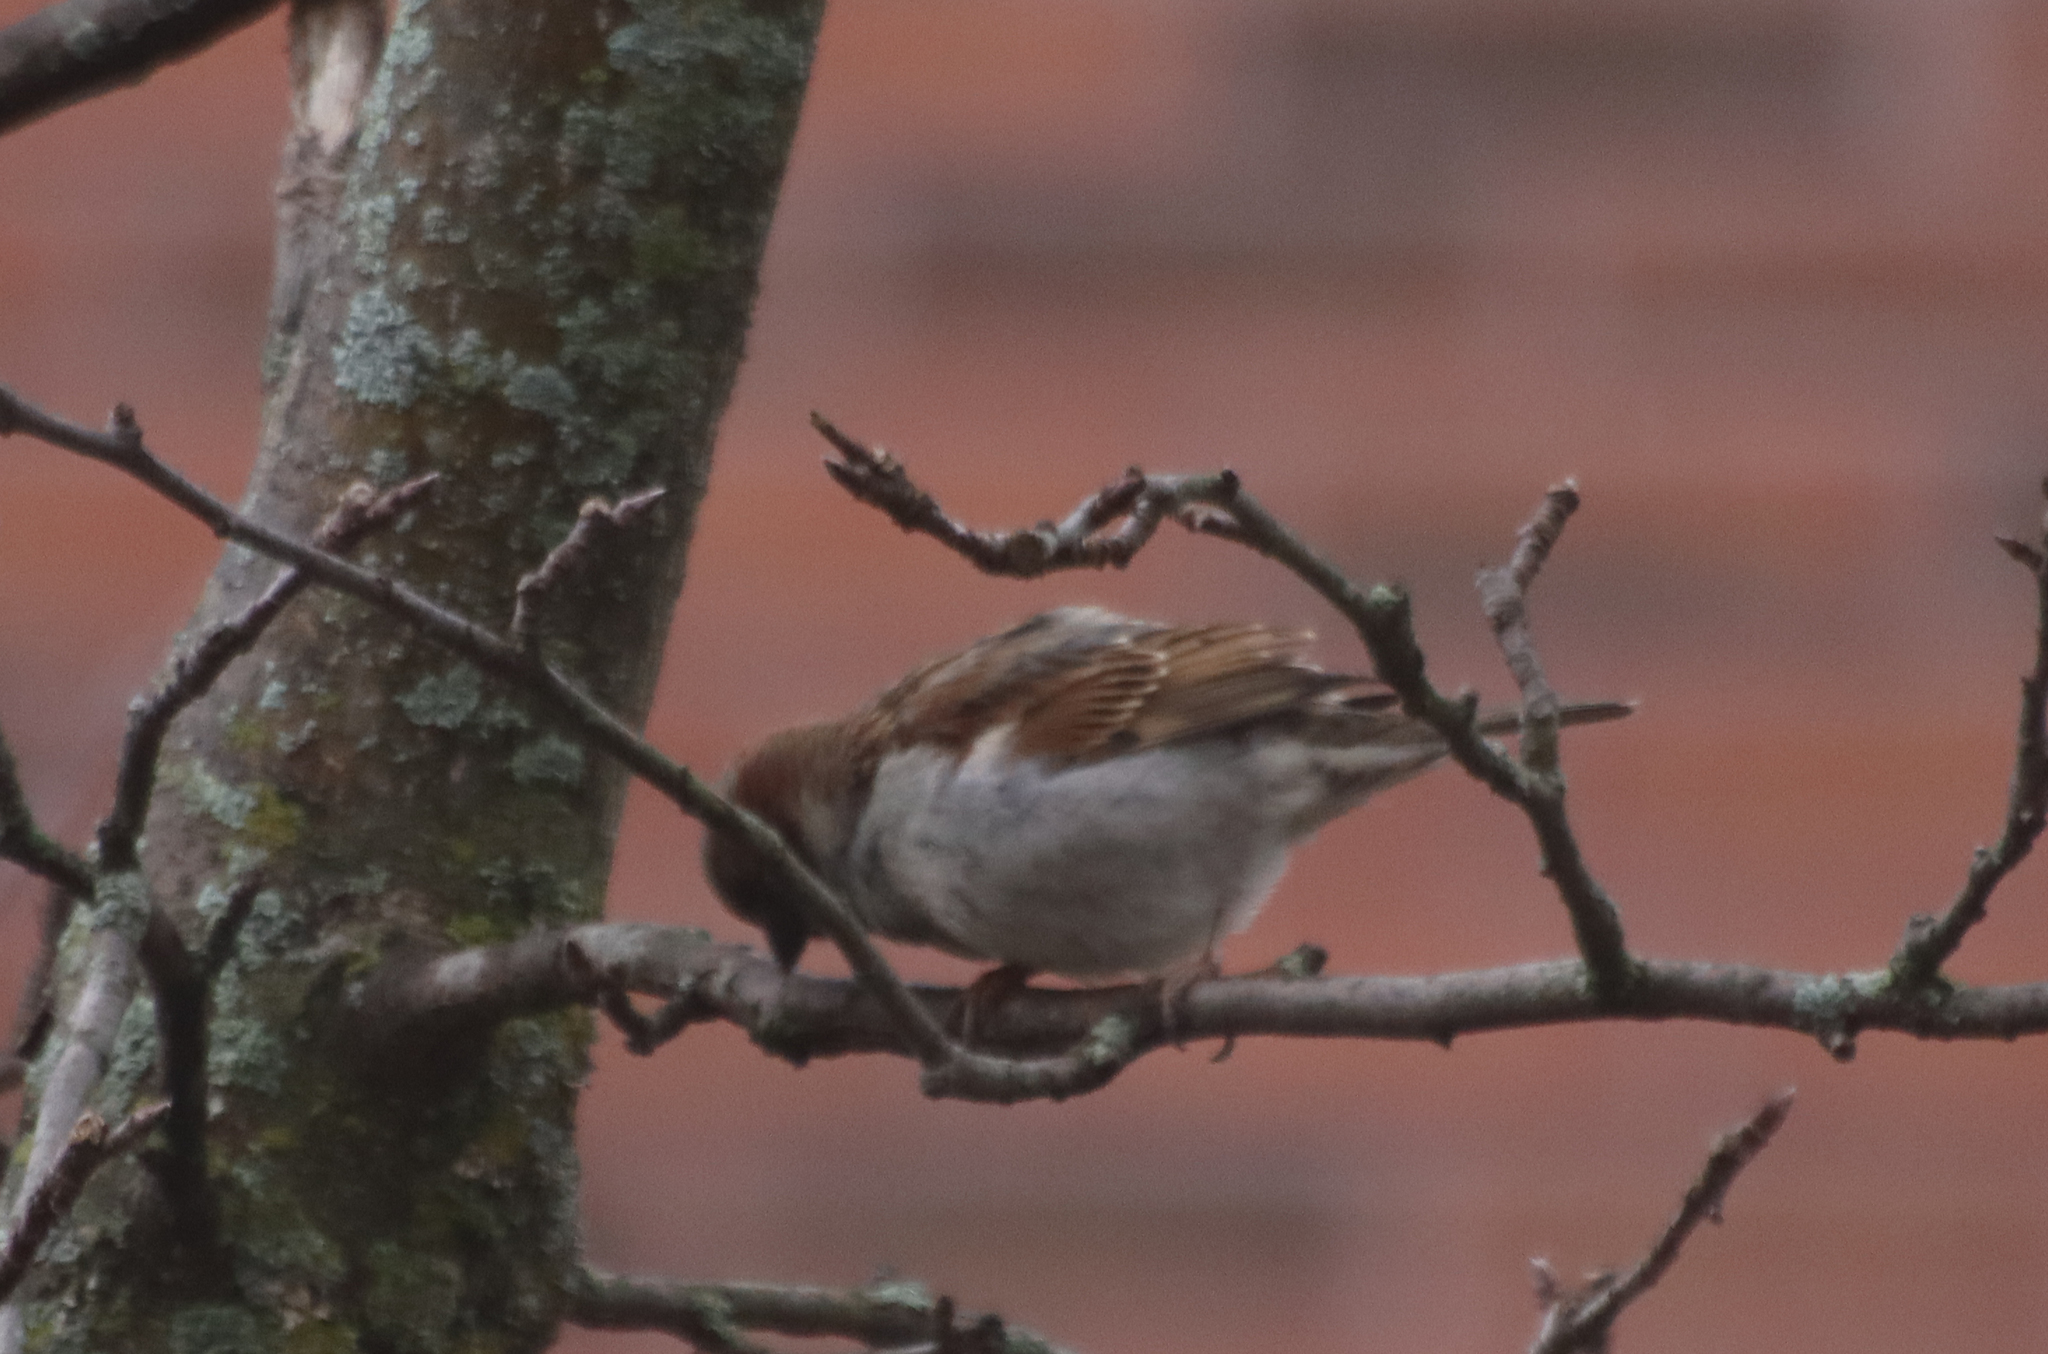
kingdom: Animalia
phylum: Chordata
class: Aves
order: Passeriformes
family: Passeridae
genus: Passer
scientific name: Passer domesticus
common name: House sparrow
